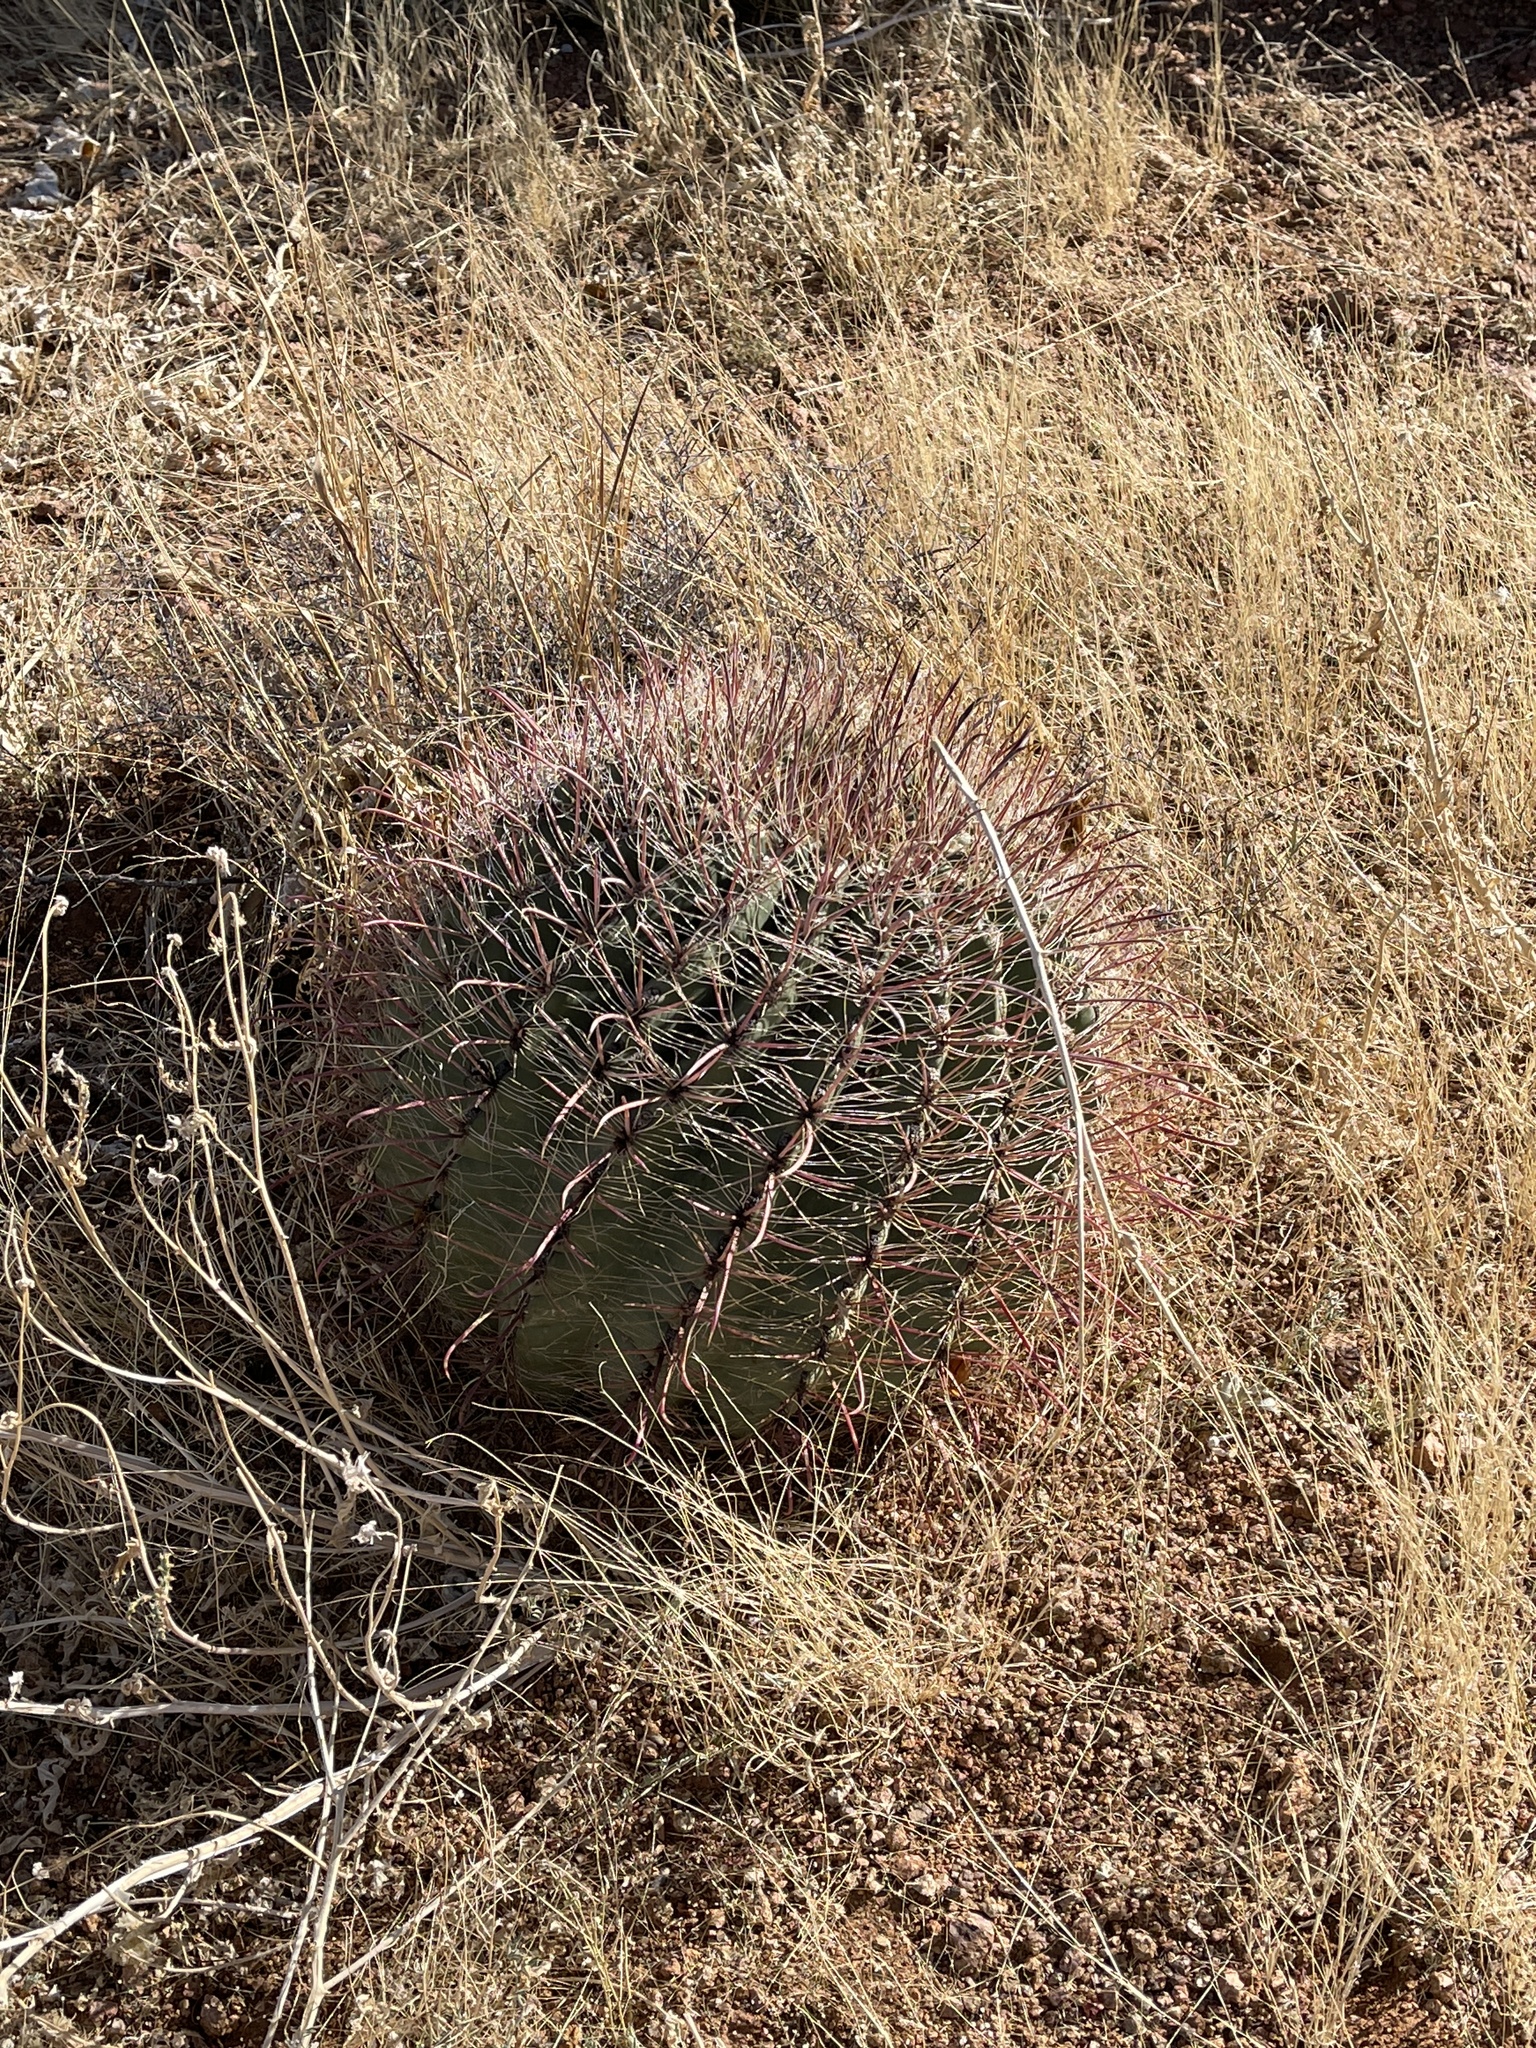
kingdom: Plantae
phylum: Tracheophyta
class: Magnoliopsida
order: Caryophyllales
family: Cactaceae
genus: Ferocactus
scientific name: Ferocactus wislizeni
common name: Candy barrel cactus
